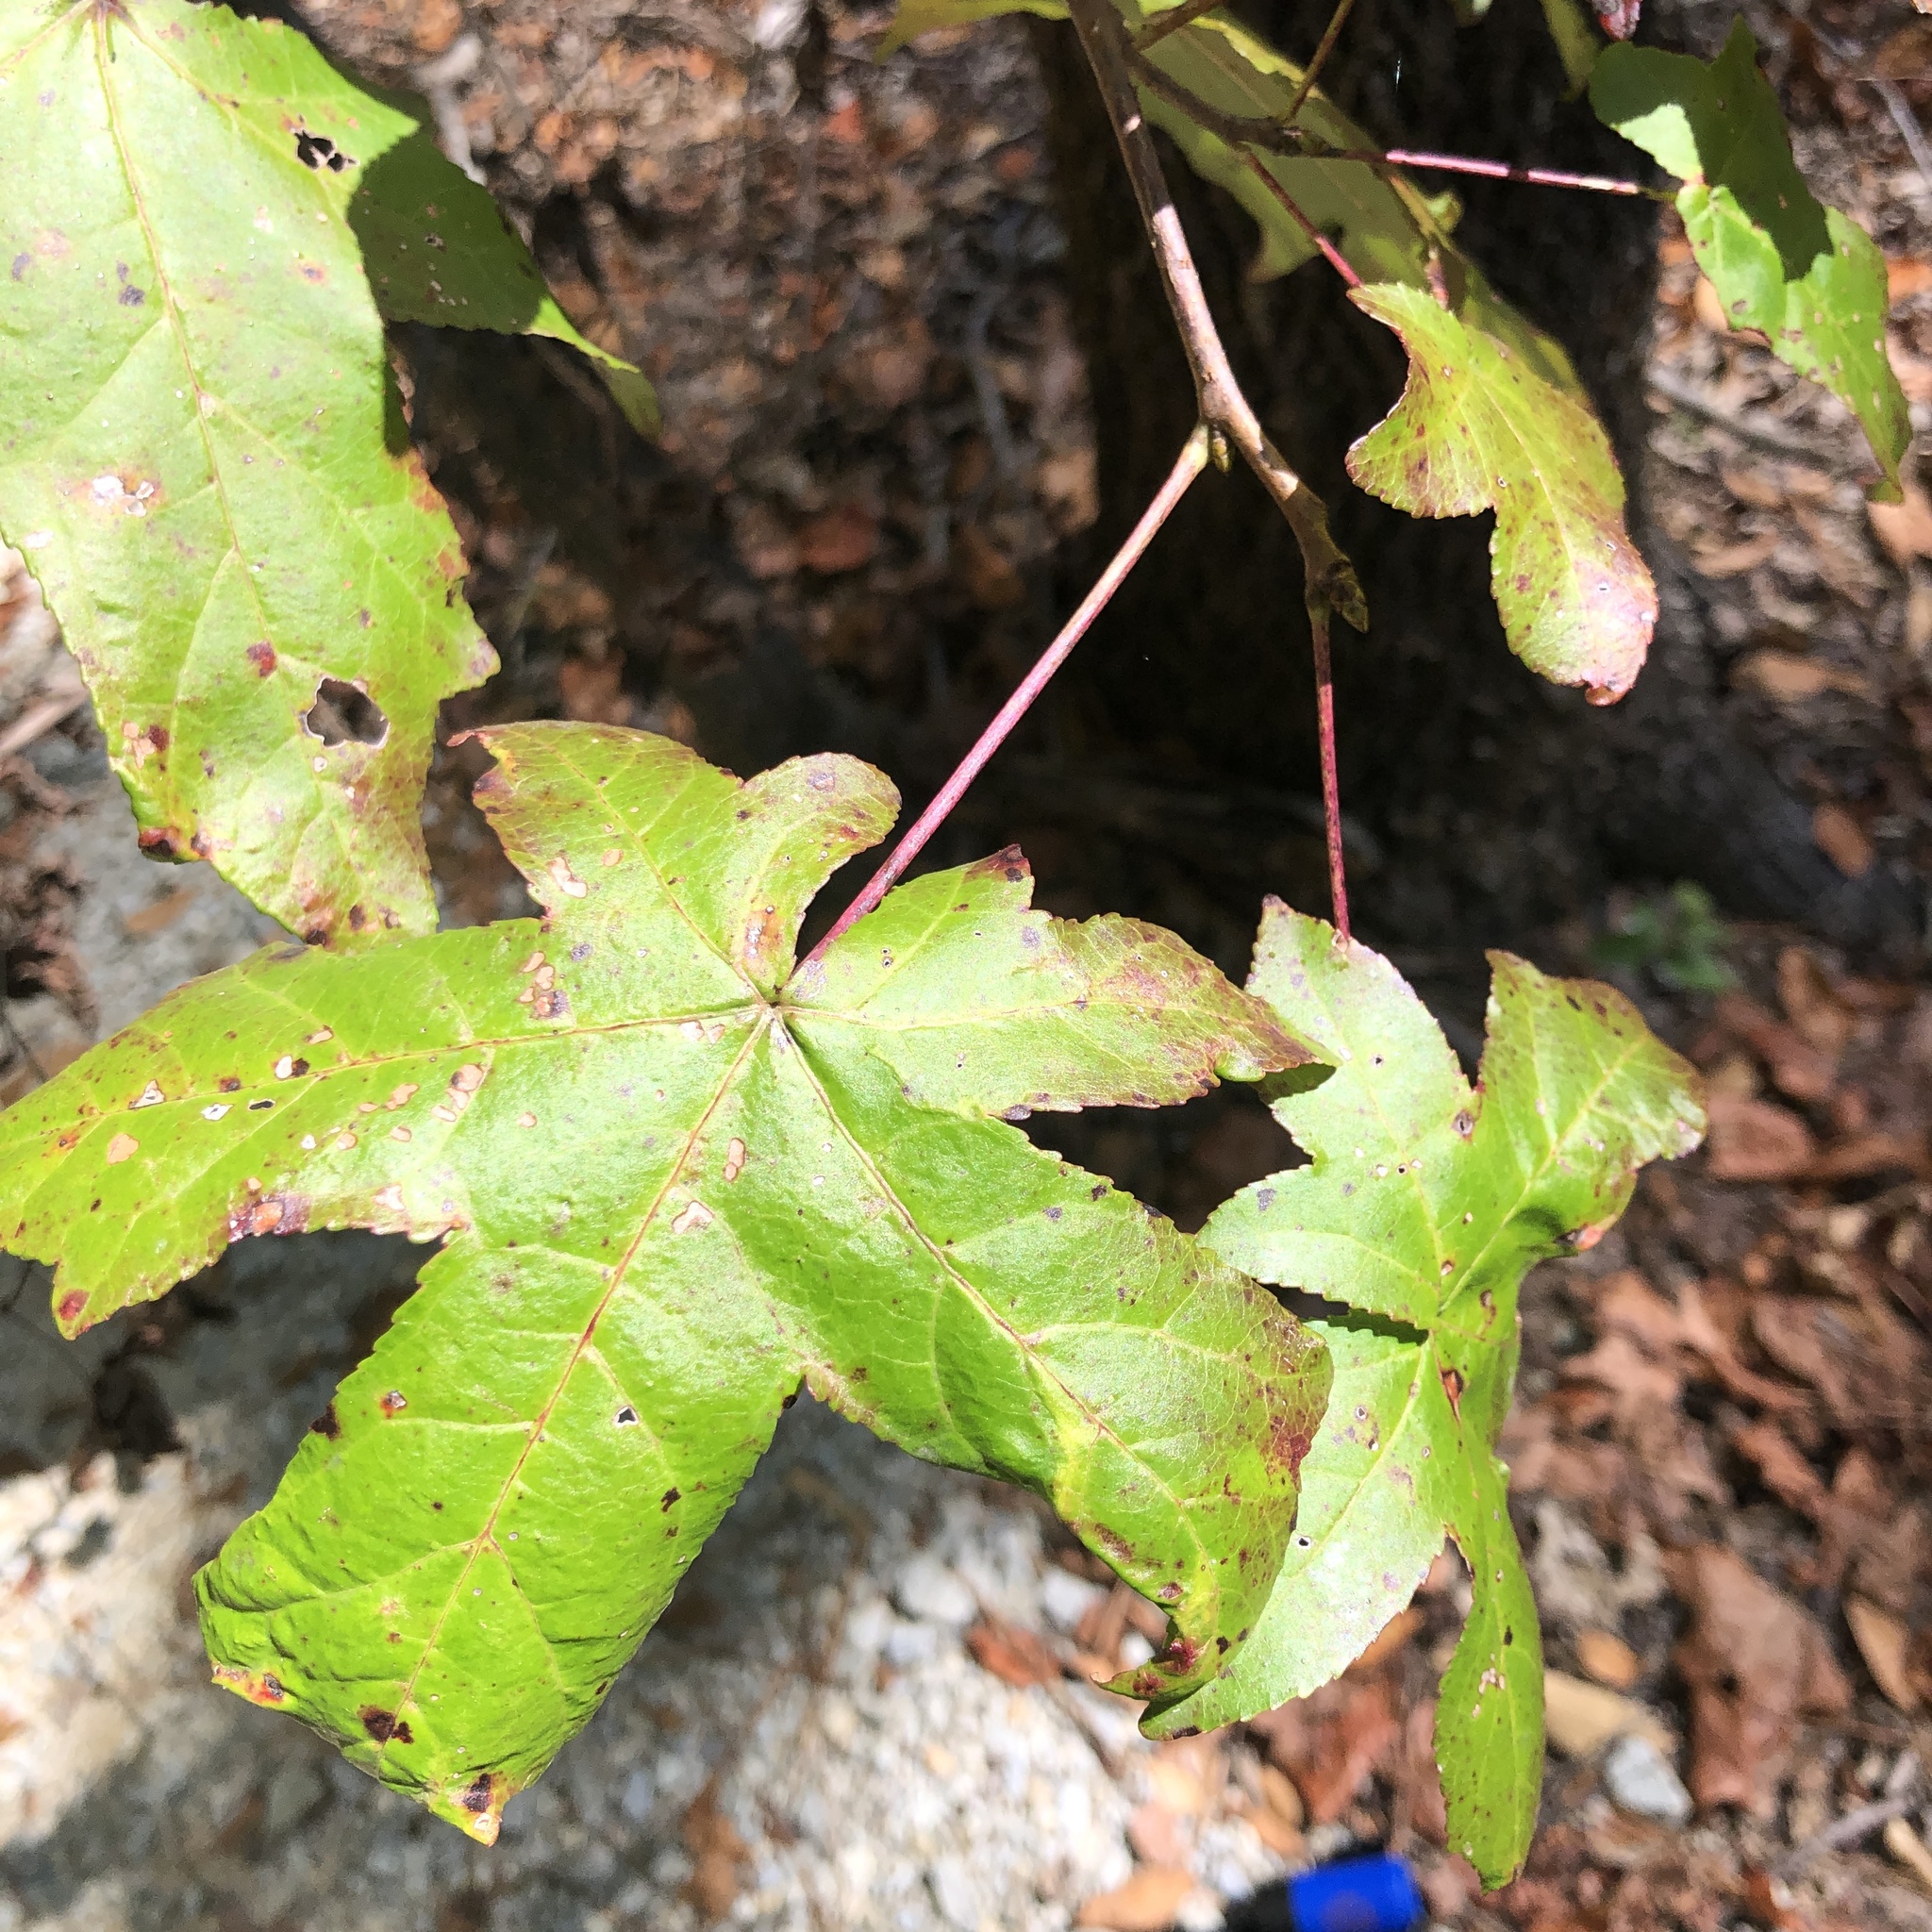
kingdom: Plantae
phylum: Tracheophyta
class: Magnoliopsida
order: Saxifragales
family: Altingiaceae
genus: Liquidambar
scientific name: Liquidambar styraciflua
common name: Sweet gum
